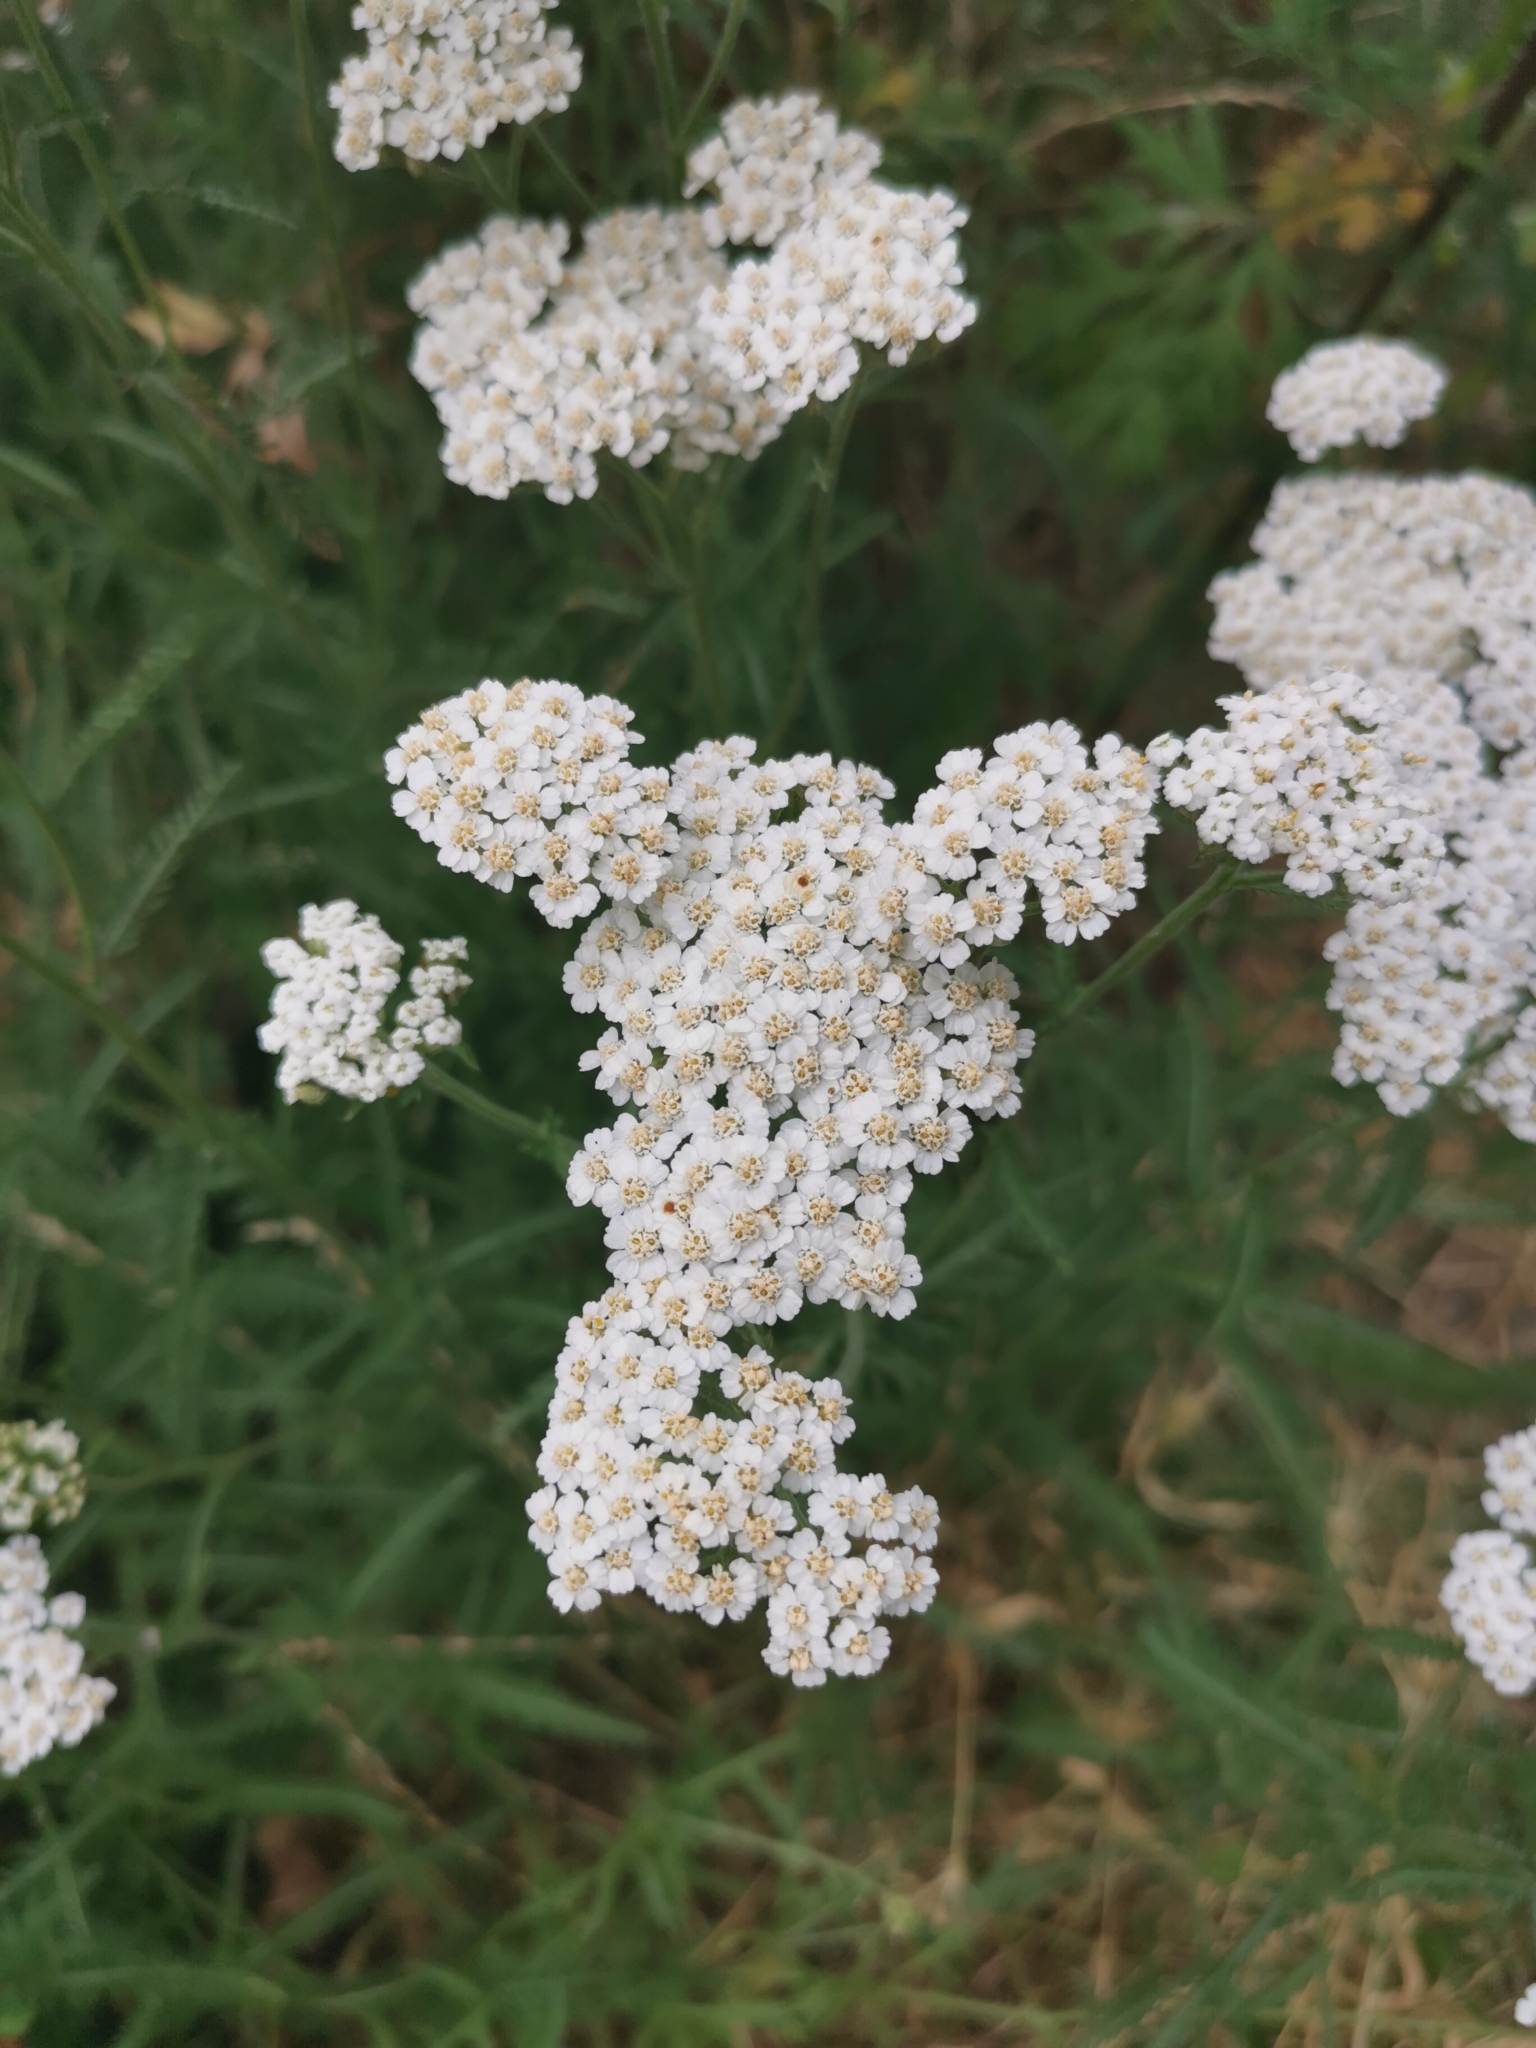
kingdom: Plantae
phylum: Tracheophyta
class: Magnoliopsida
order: Asterales
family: Asteraceae
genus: Achillea
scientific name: Achillea millefolium
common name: Yarrow
